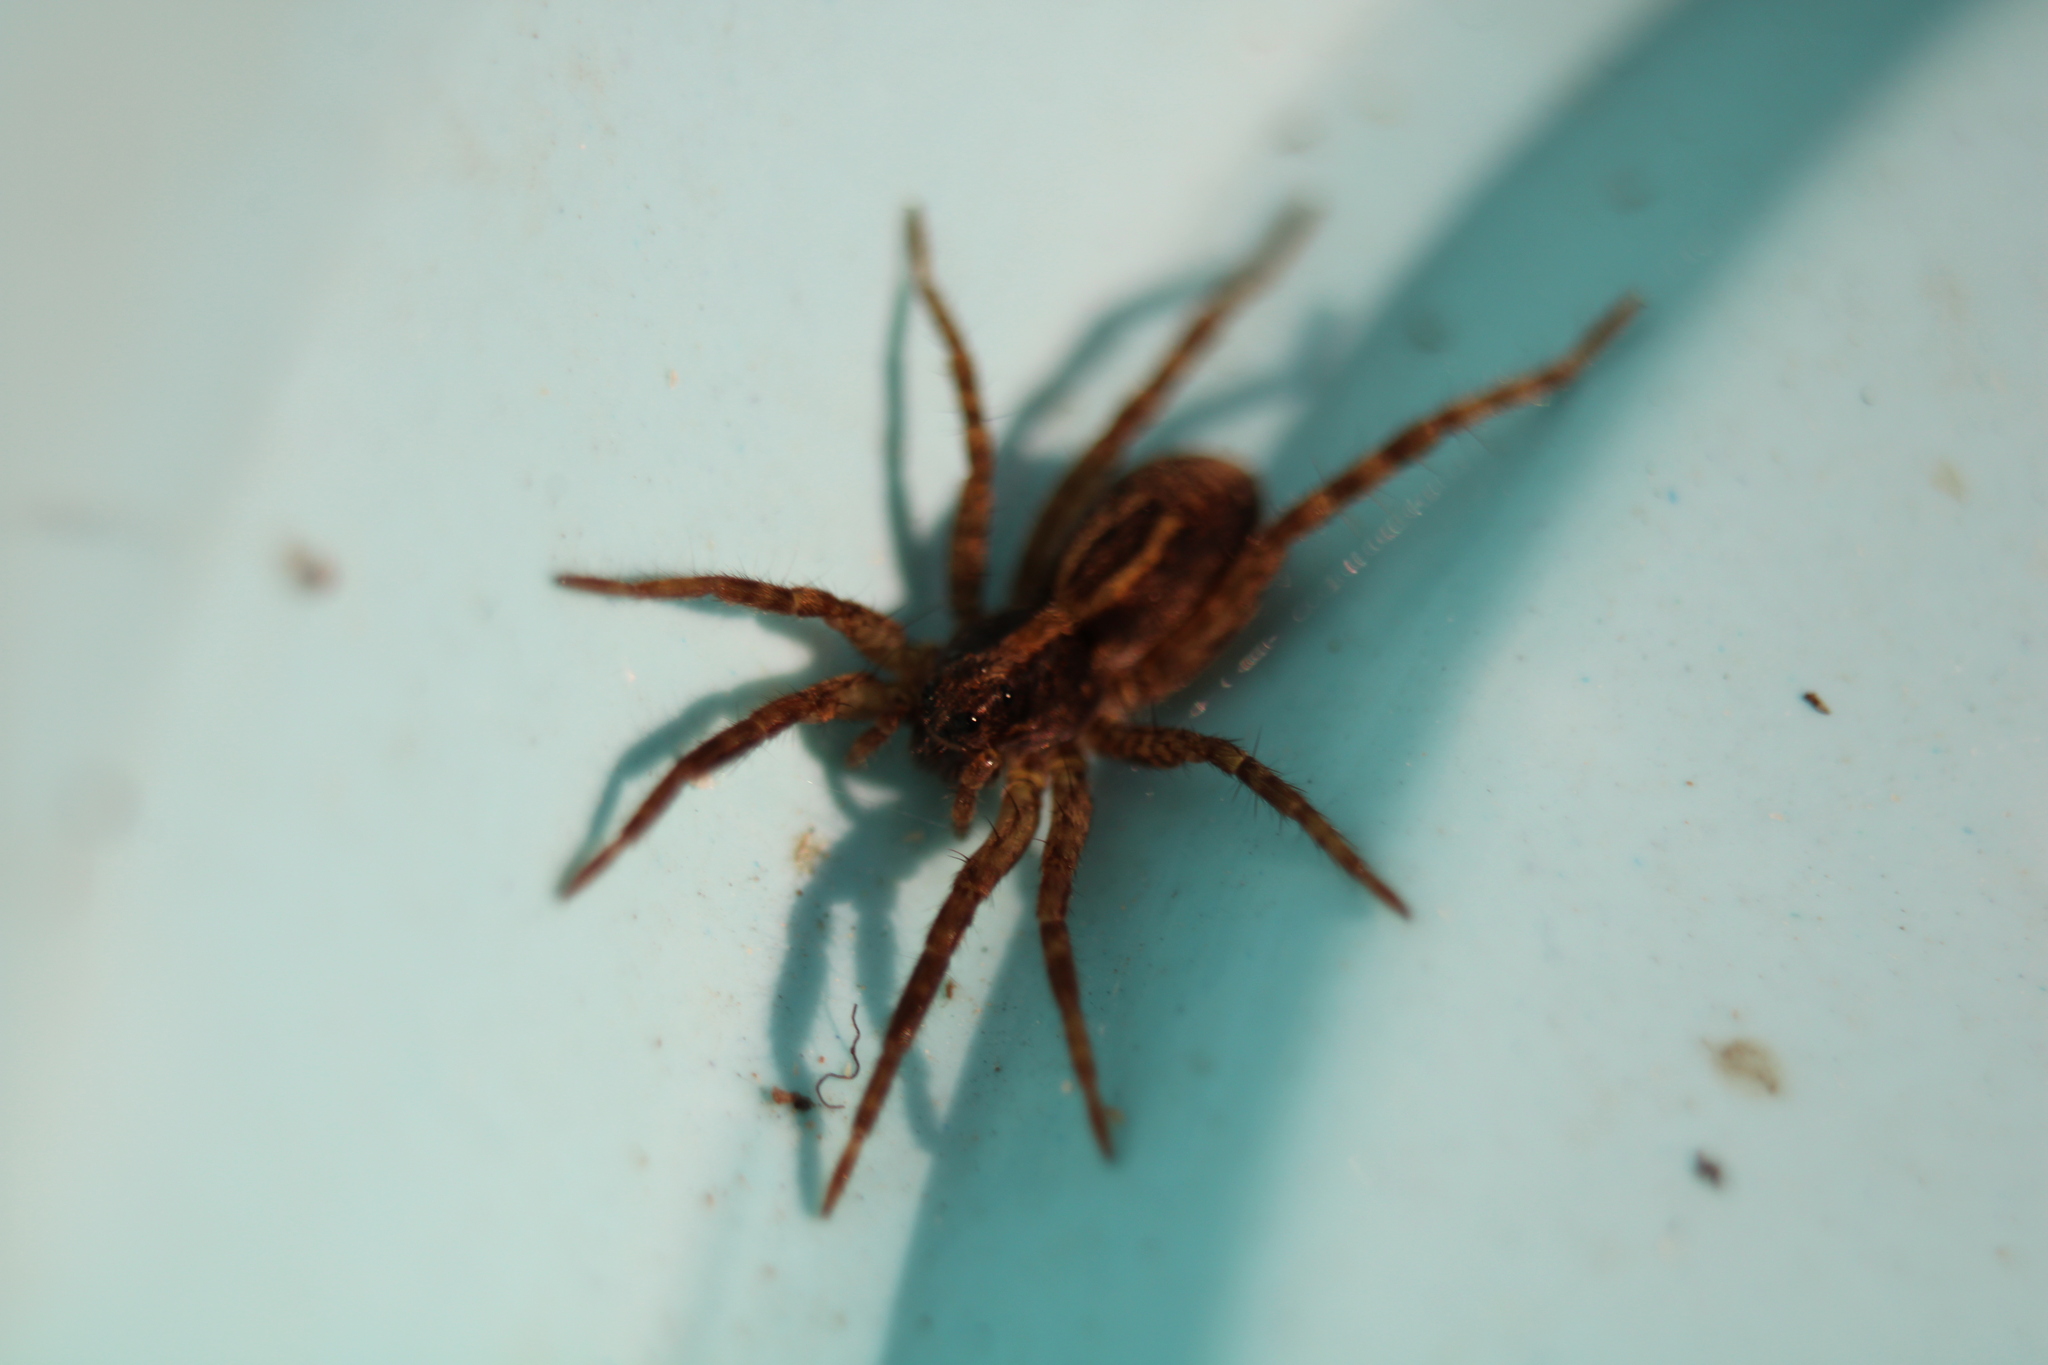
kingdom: Animalia
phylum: Arthropoda
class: Arachnida
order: Araneae
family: Lycosidae
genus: Schizocosa
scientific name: Schizocosa avida
